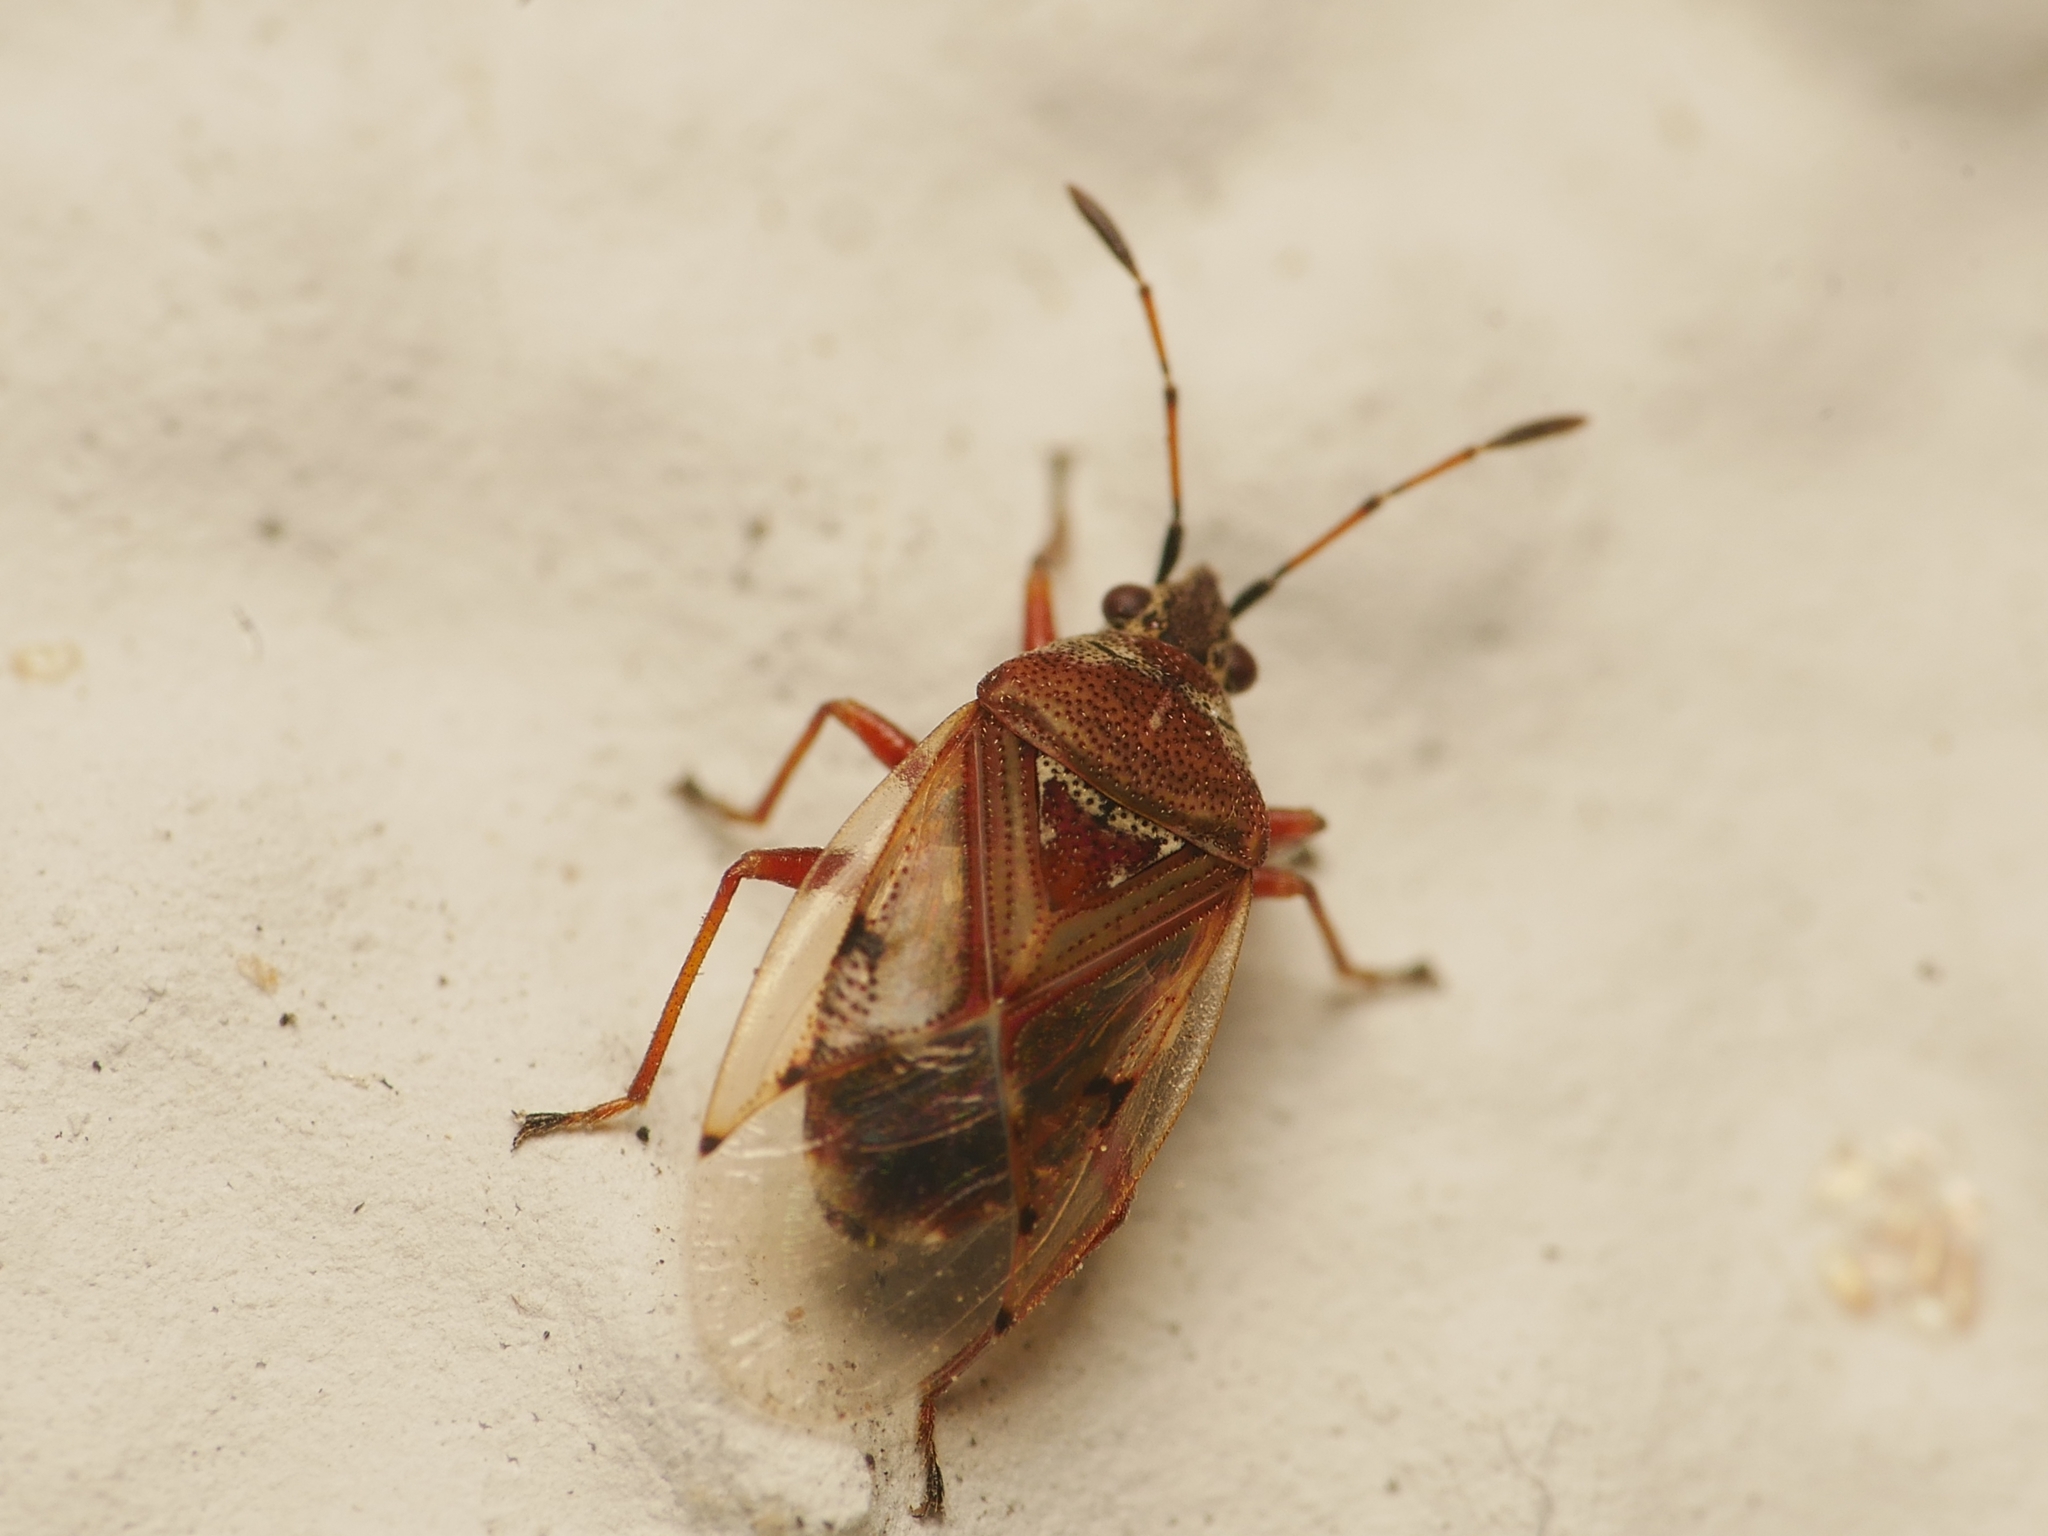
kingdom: Animalia
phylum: Arthropoda
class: Insecta
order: Hemiptera
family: Lygaeidae
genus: Kleidocerys
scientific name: Kleidocerys resedae
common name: Birch catkin bug
